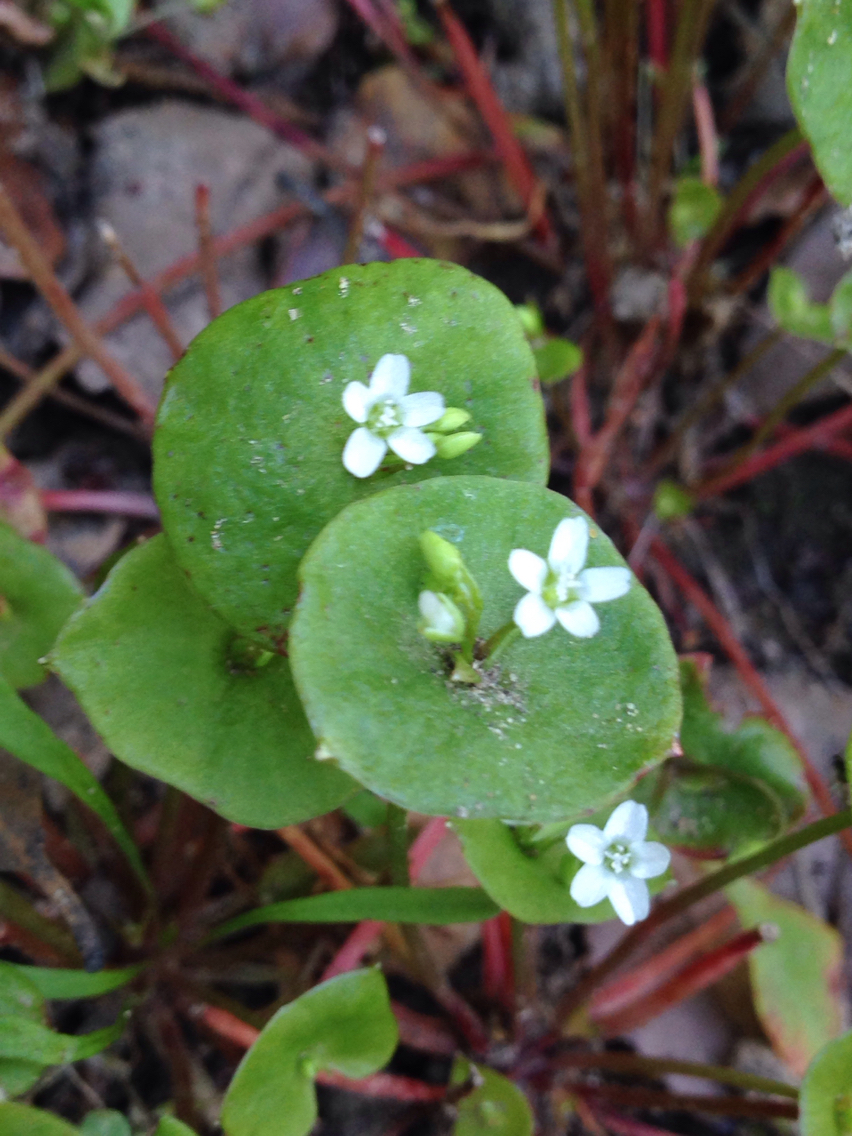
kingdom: Plantae
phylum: Tracheophyta
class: Magnoliopsida
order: Caryophyllales
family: Montiaceae
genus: Claytonia
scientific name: Claytonia perfoliata
